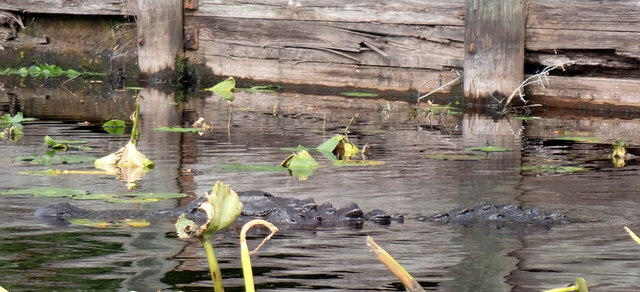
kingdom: Animalia
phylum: Chordata
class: Crocodylia
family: Alligatoridae
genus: Alligator
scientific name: Alligator mississippiensis
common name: American alligator
